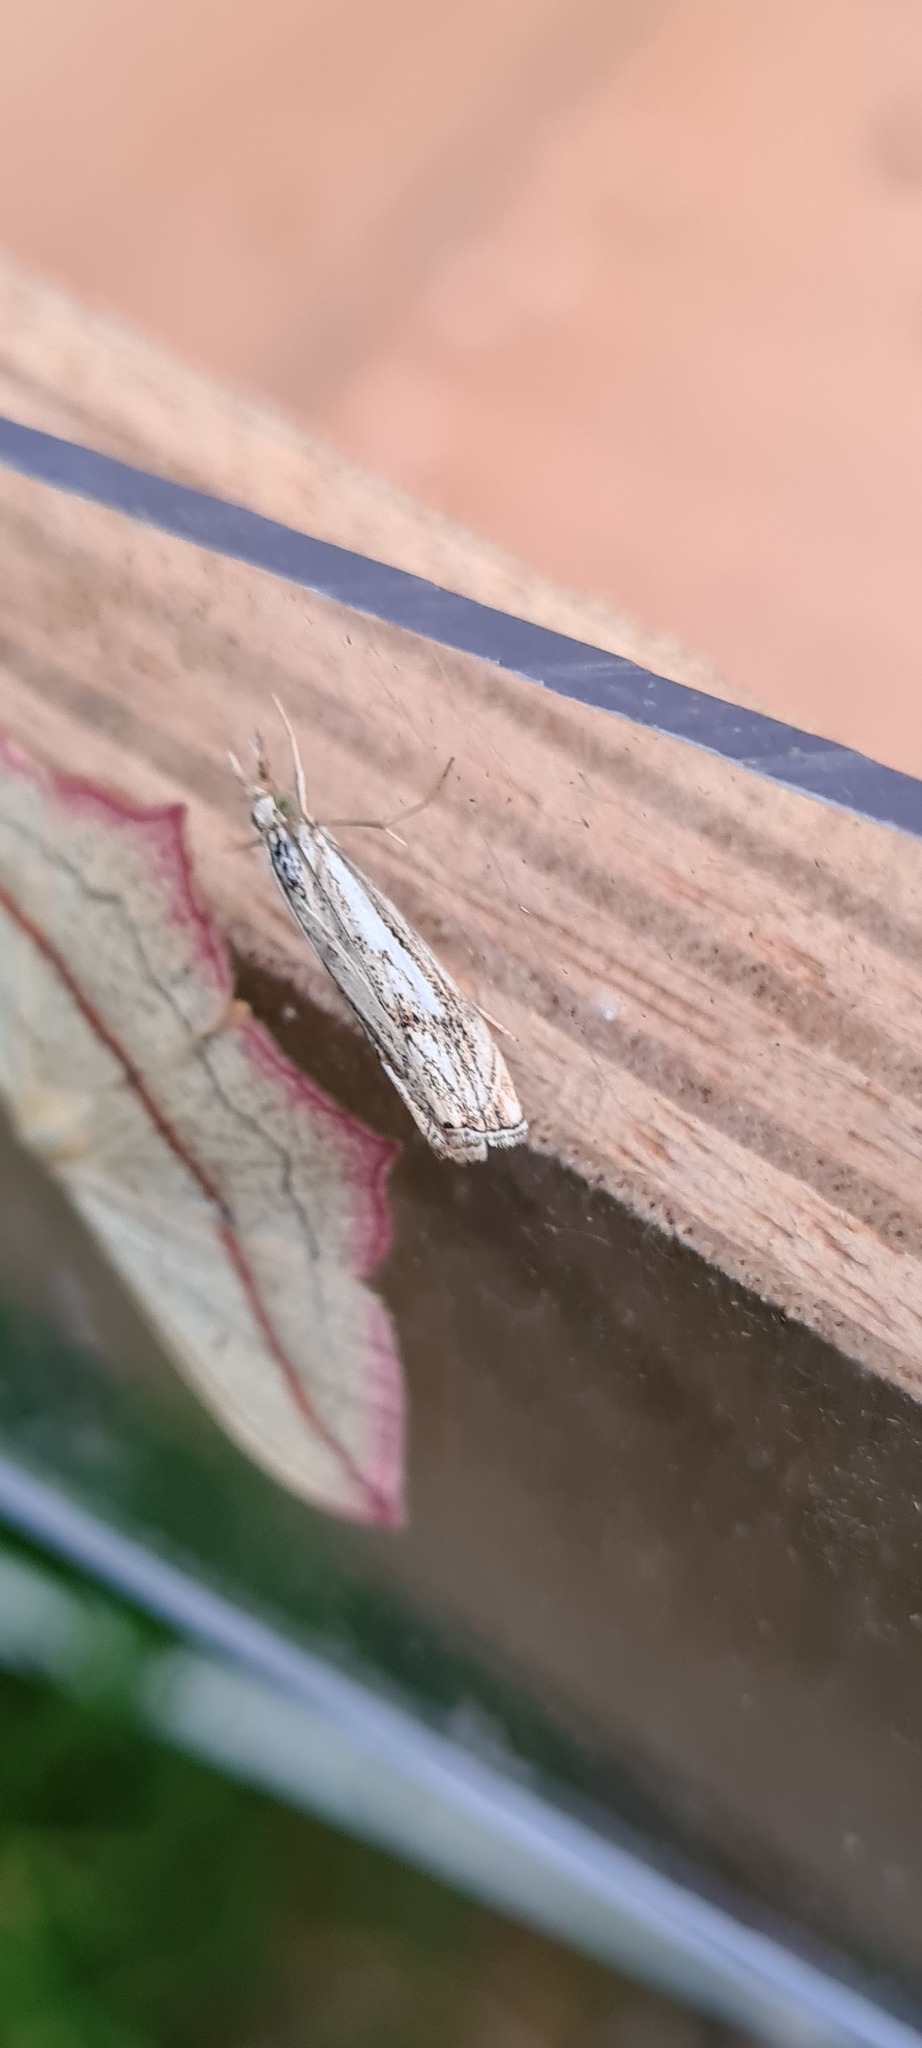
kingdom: Animalia
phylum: Arthropoda
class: Insecta
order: Lepidoptera
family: Crambidae
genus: Catoptria
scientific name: Catoptria falsella
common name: Chequered grass-veneer
